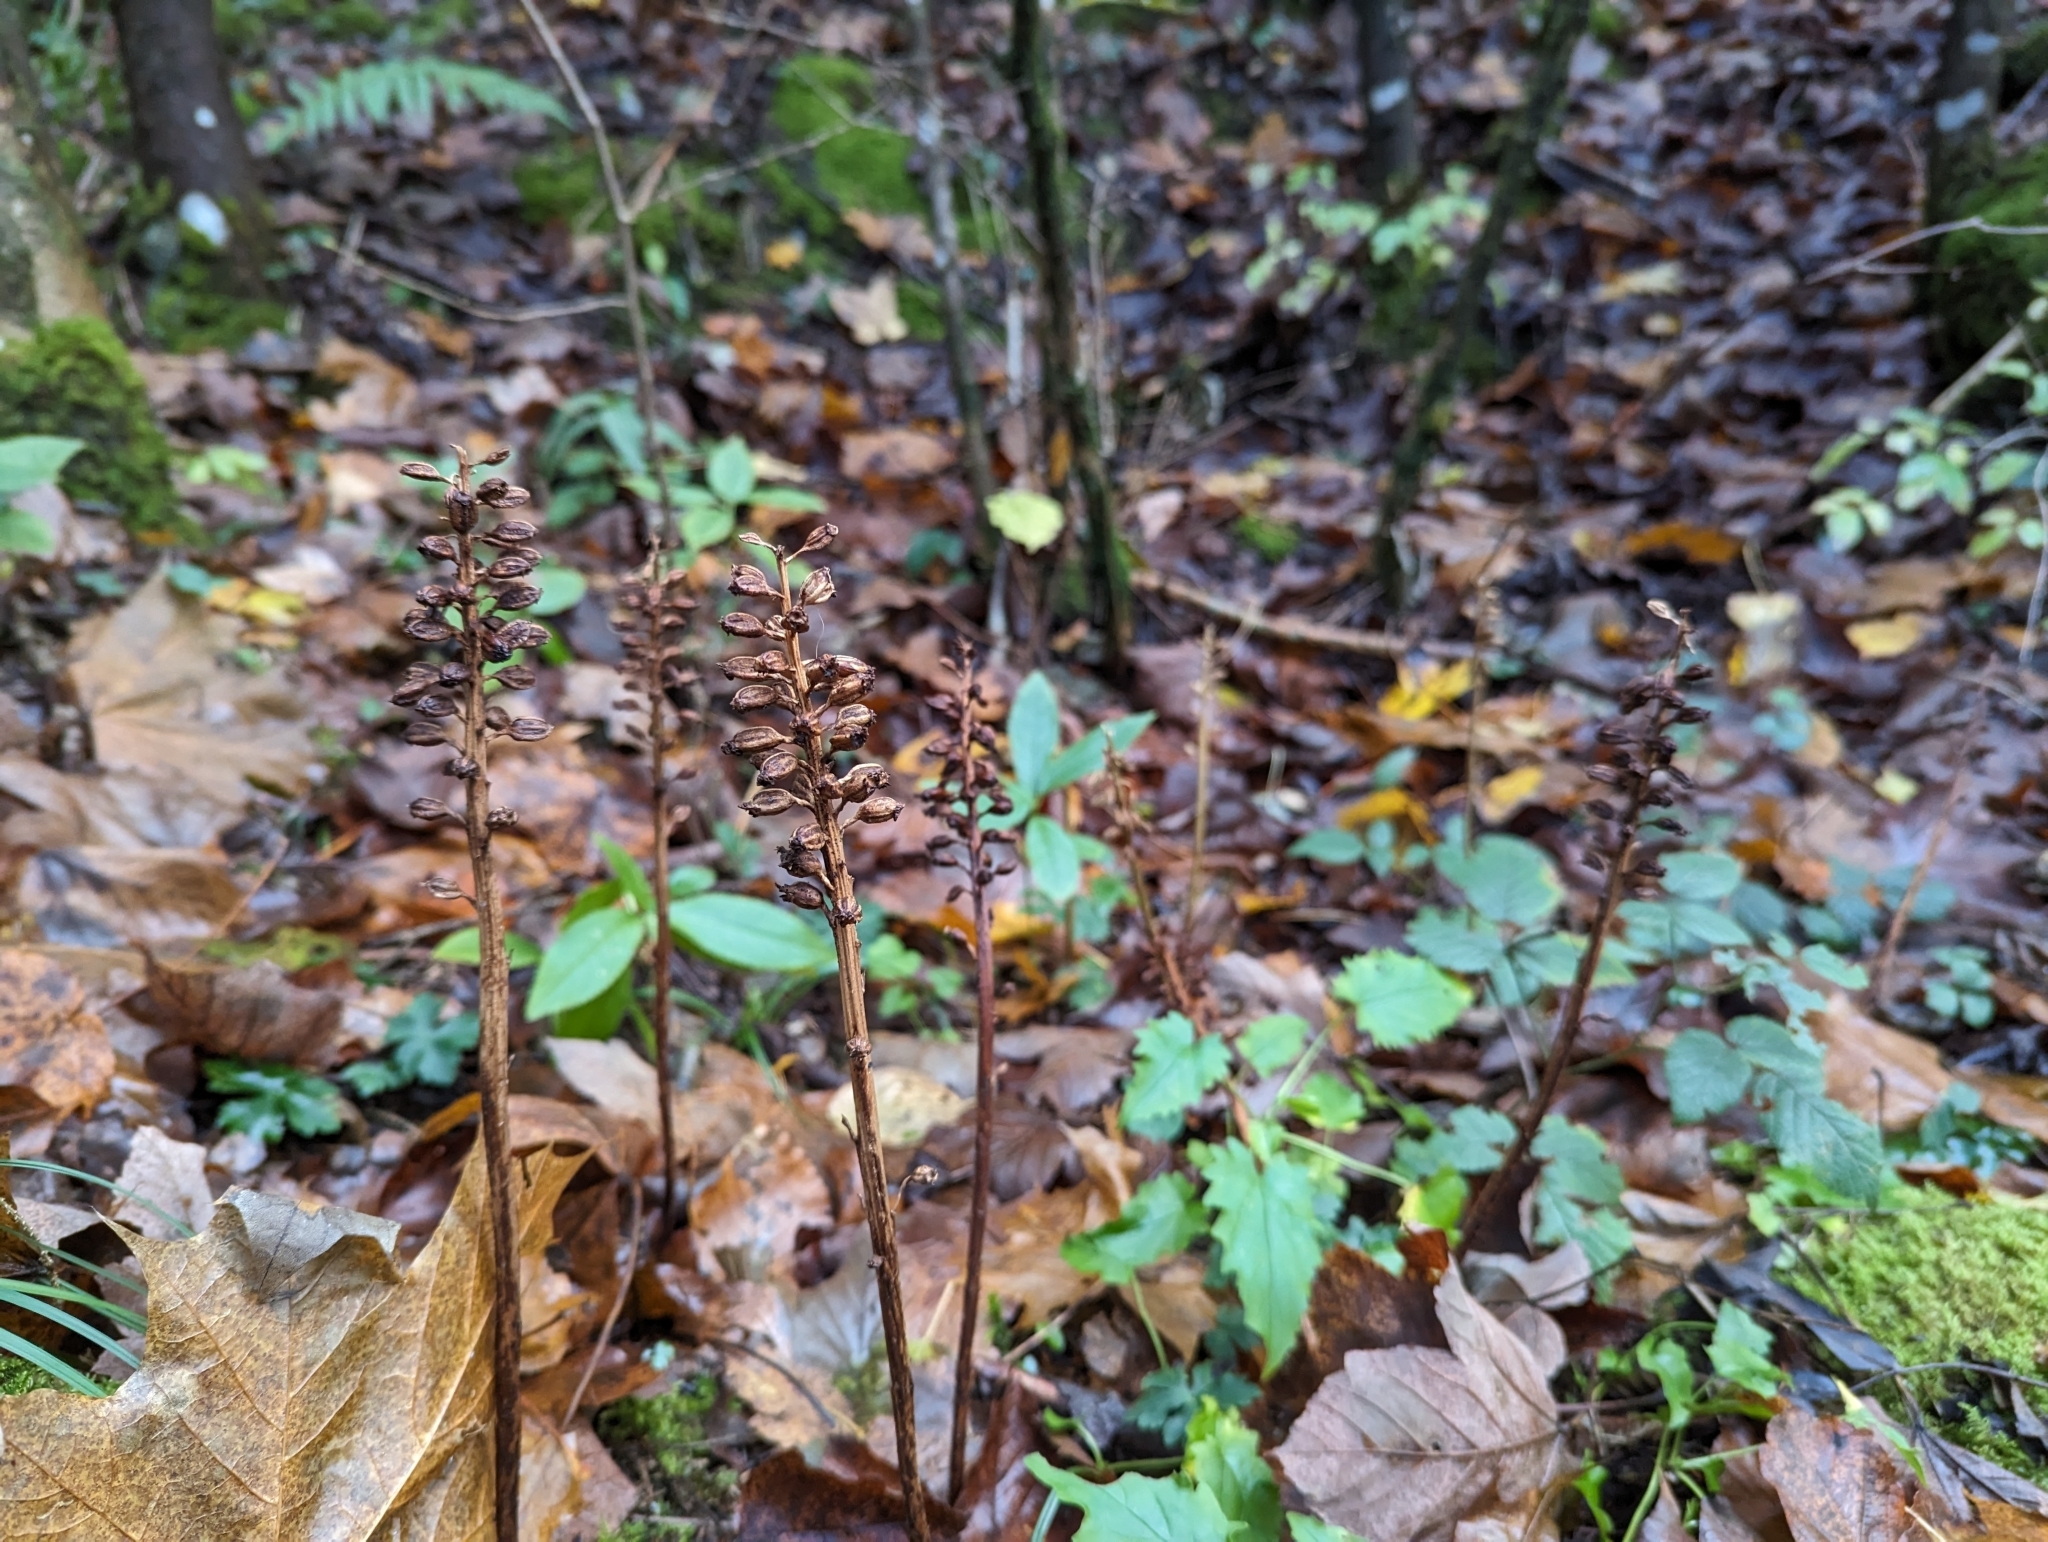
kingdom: Plantae
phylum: Tracheophyta
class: Liliopsida
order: Asparagales
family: Orchidaceae
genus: Neottia
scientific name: Neottia nidus-avis
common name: Bird's-nest orchid
